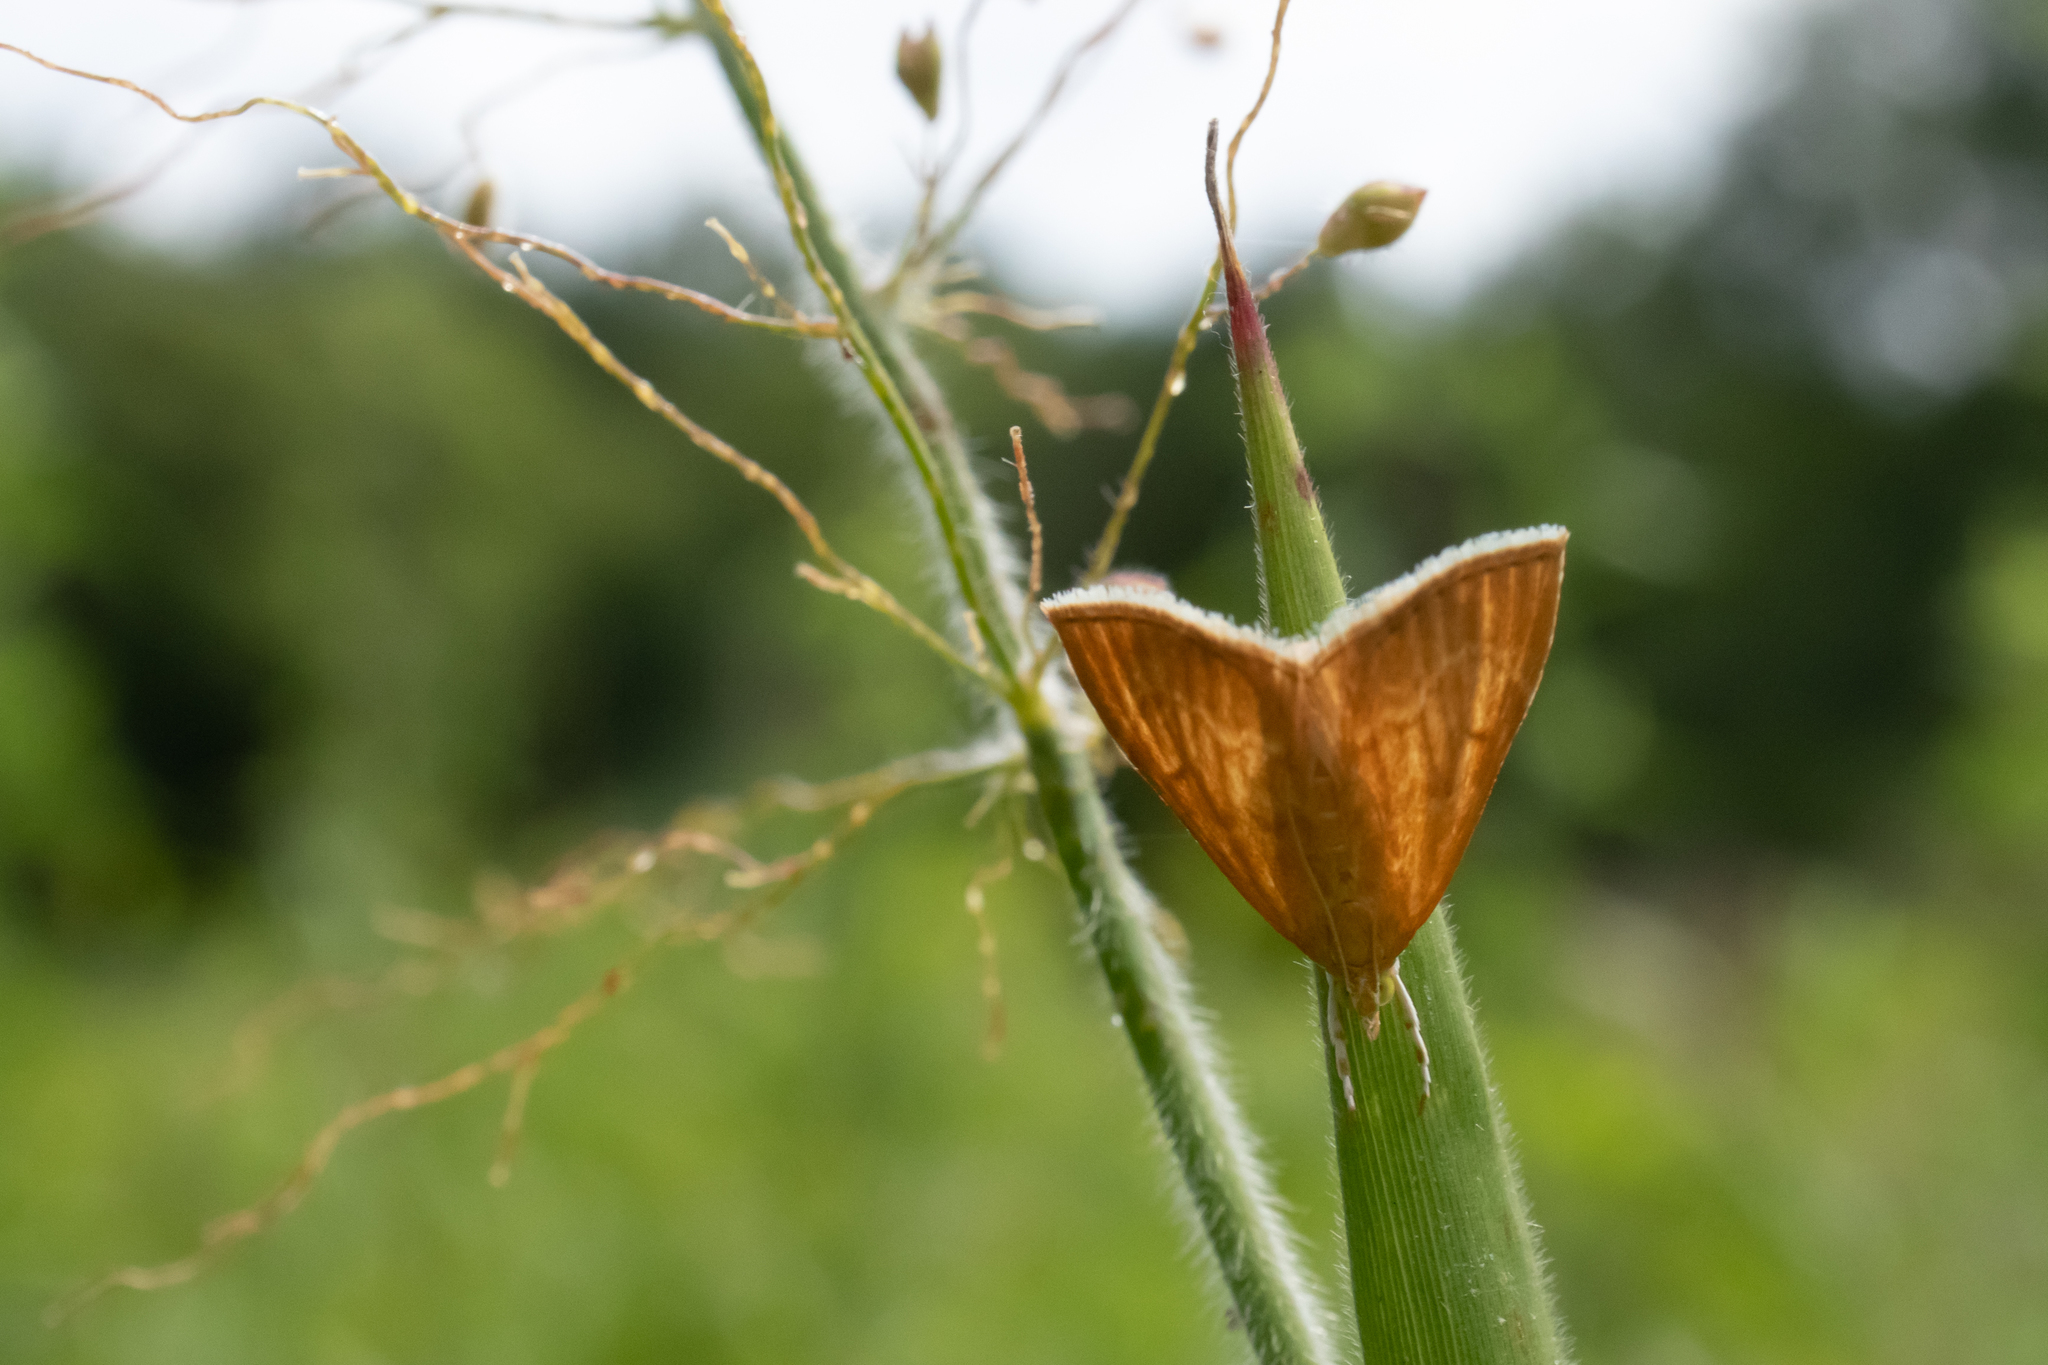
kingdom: Animalia
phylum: Arthropoda
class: Insecta
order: Lepidoptera
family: Crambidae
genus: Glaphyria
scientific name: Glaphyria invisalis
